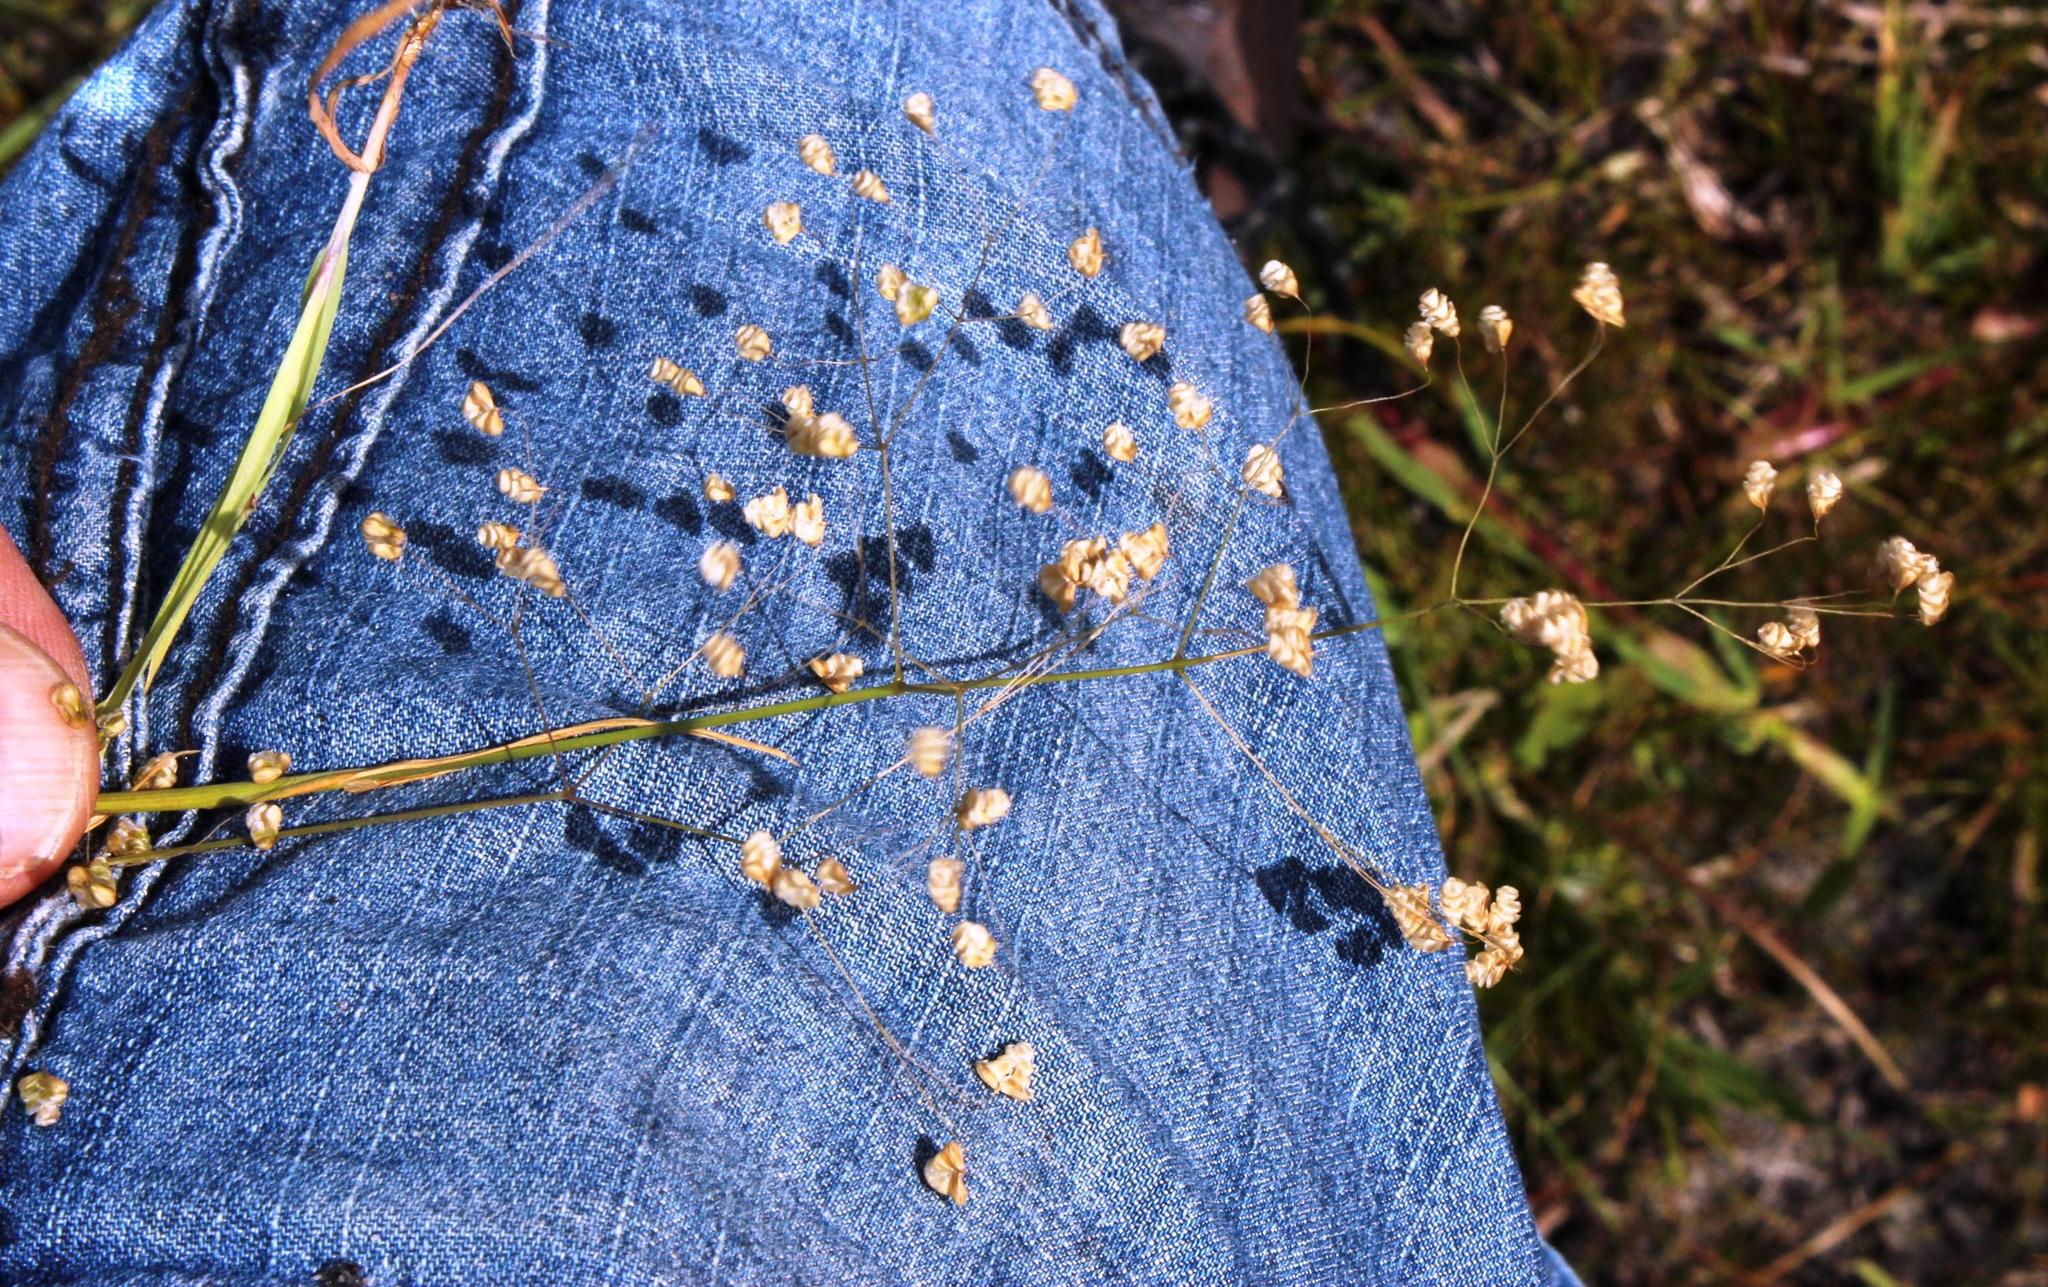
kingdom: Plantae
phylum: Tracheophyta
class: Liliopsida
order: Poales
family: Poaceae
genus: Briza
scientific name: Briza minor
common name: Lesser quaking-grass
